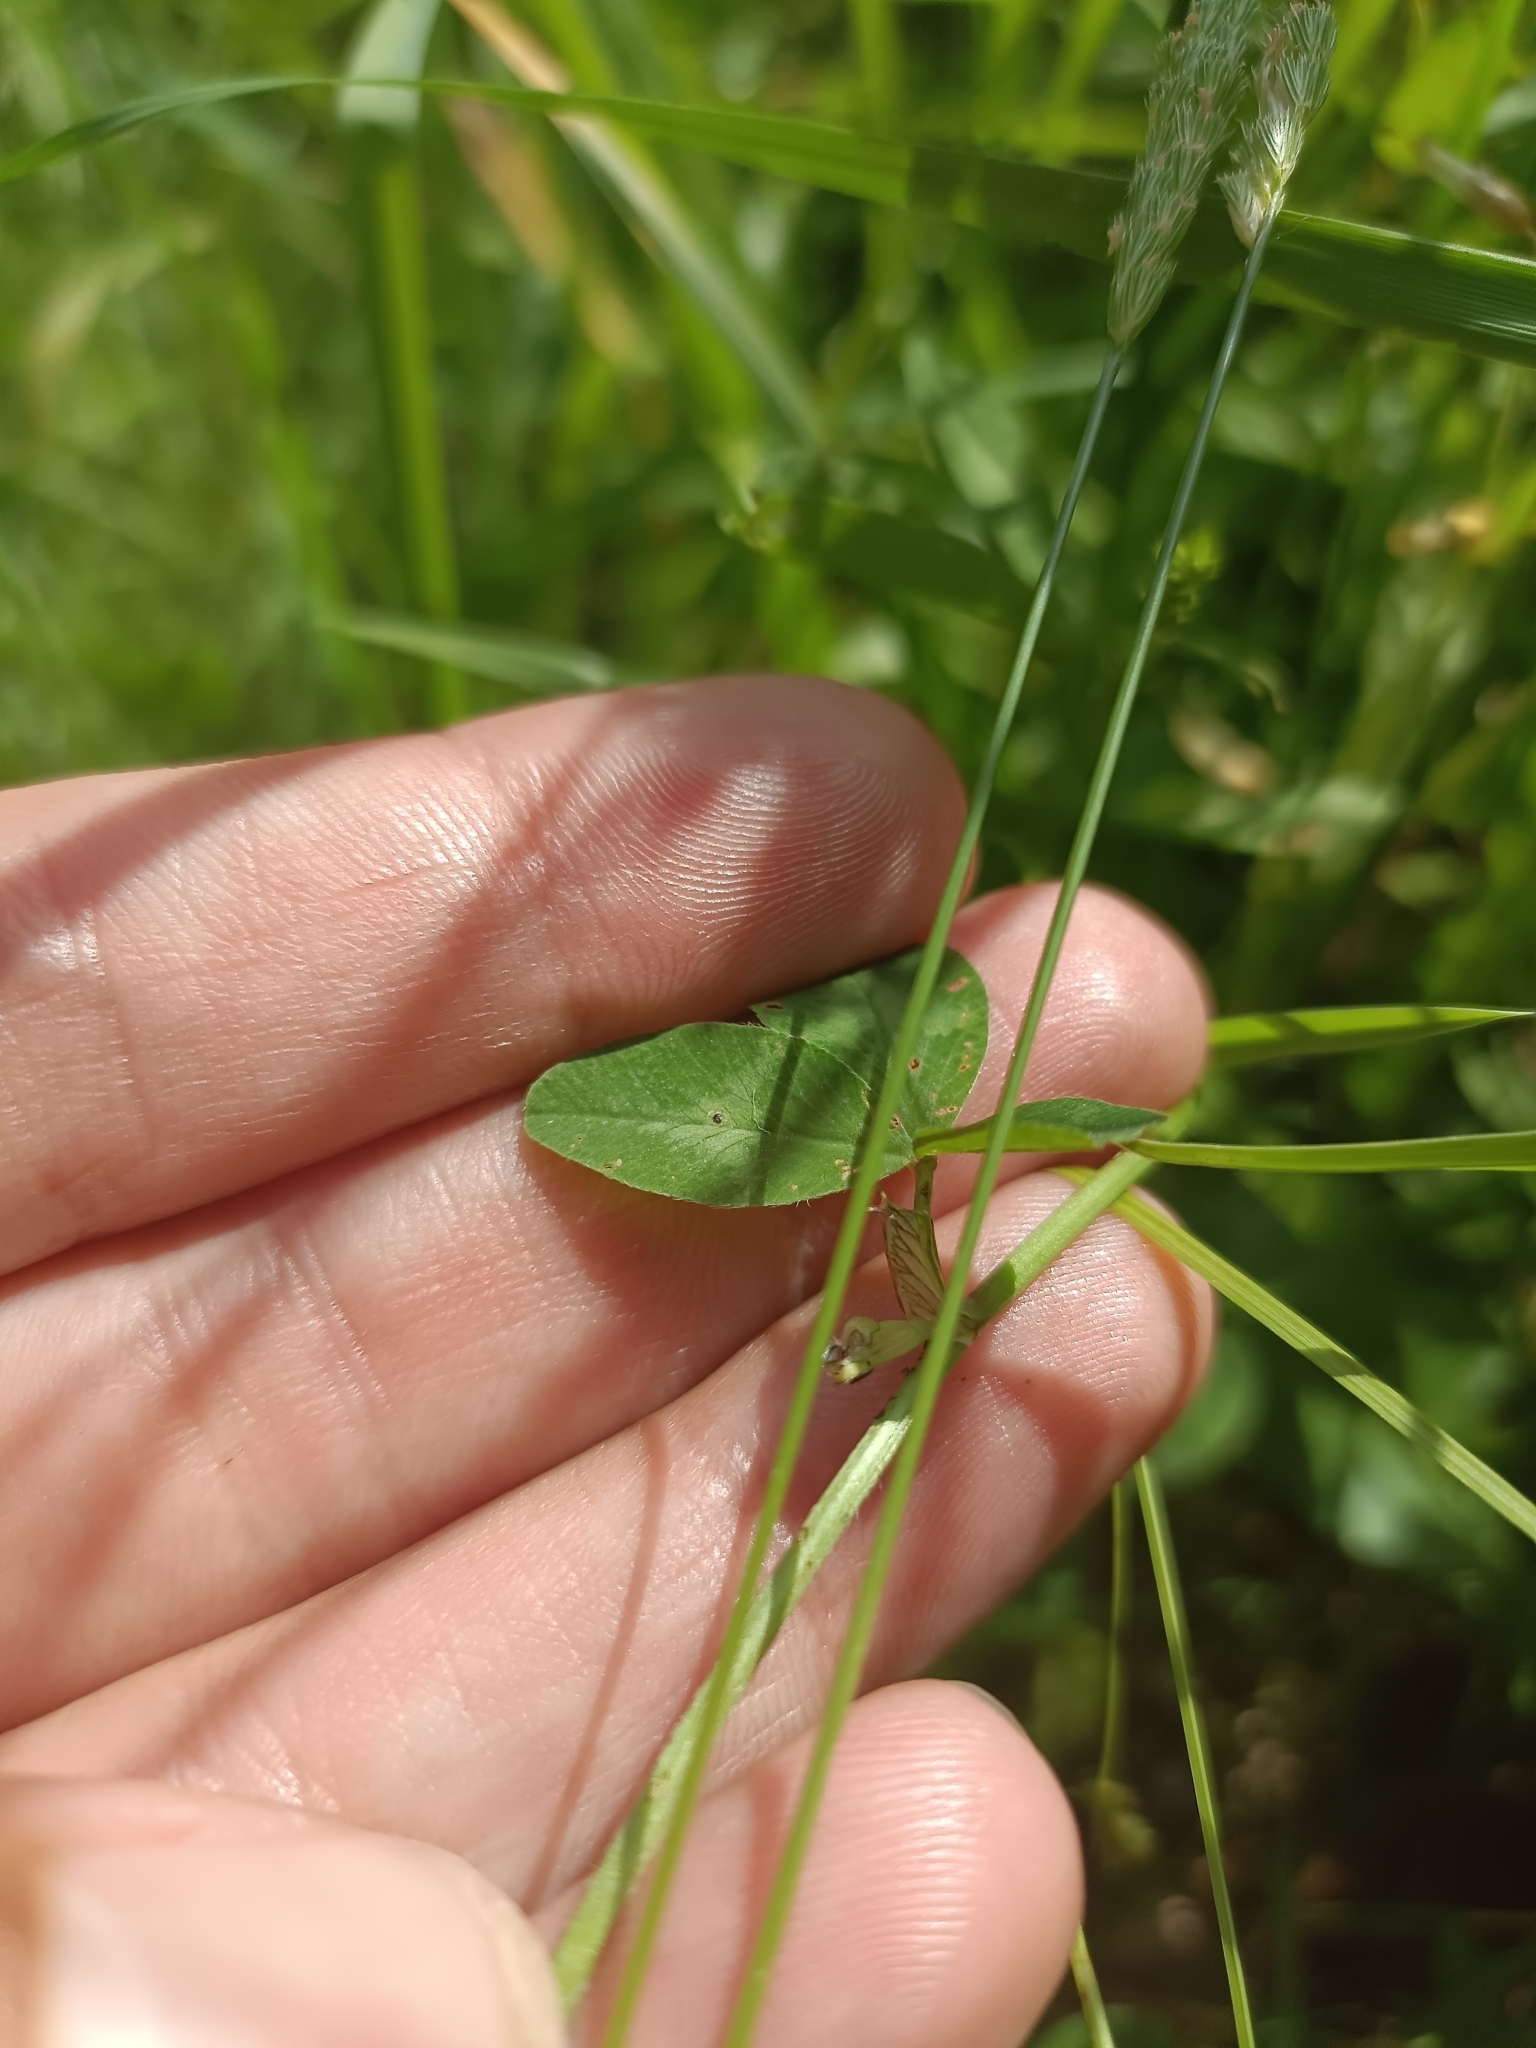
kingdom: Plantae
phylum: Tracheophyta
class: Magnoliopsida
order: Fabales
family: Fabaceae
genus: Trifolium
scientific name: Trifolium pratense
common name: Red clover
